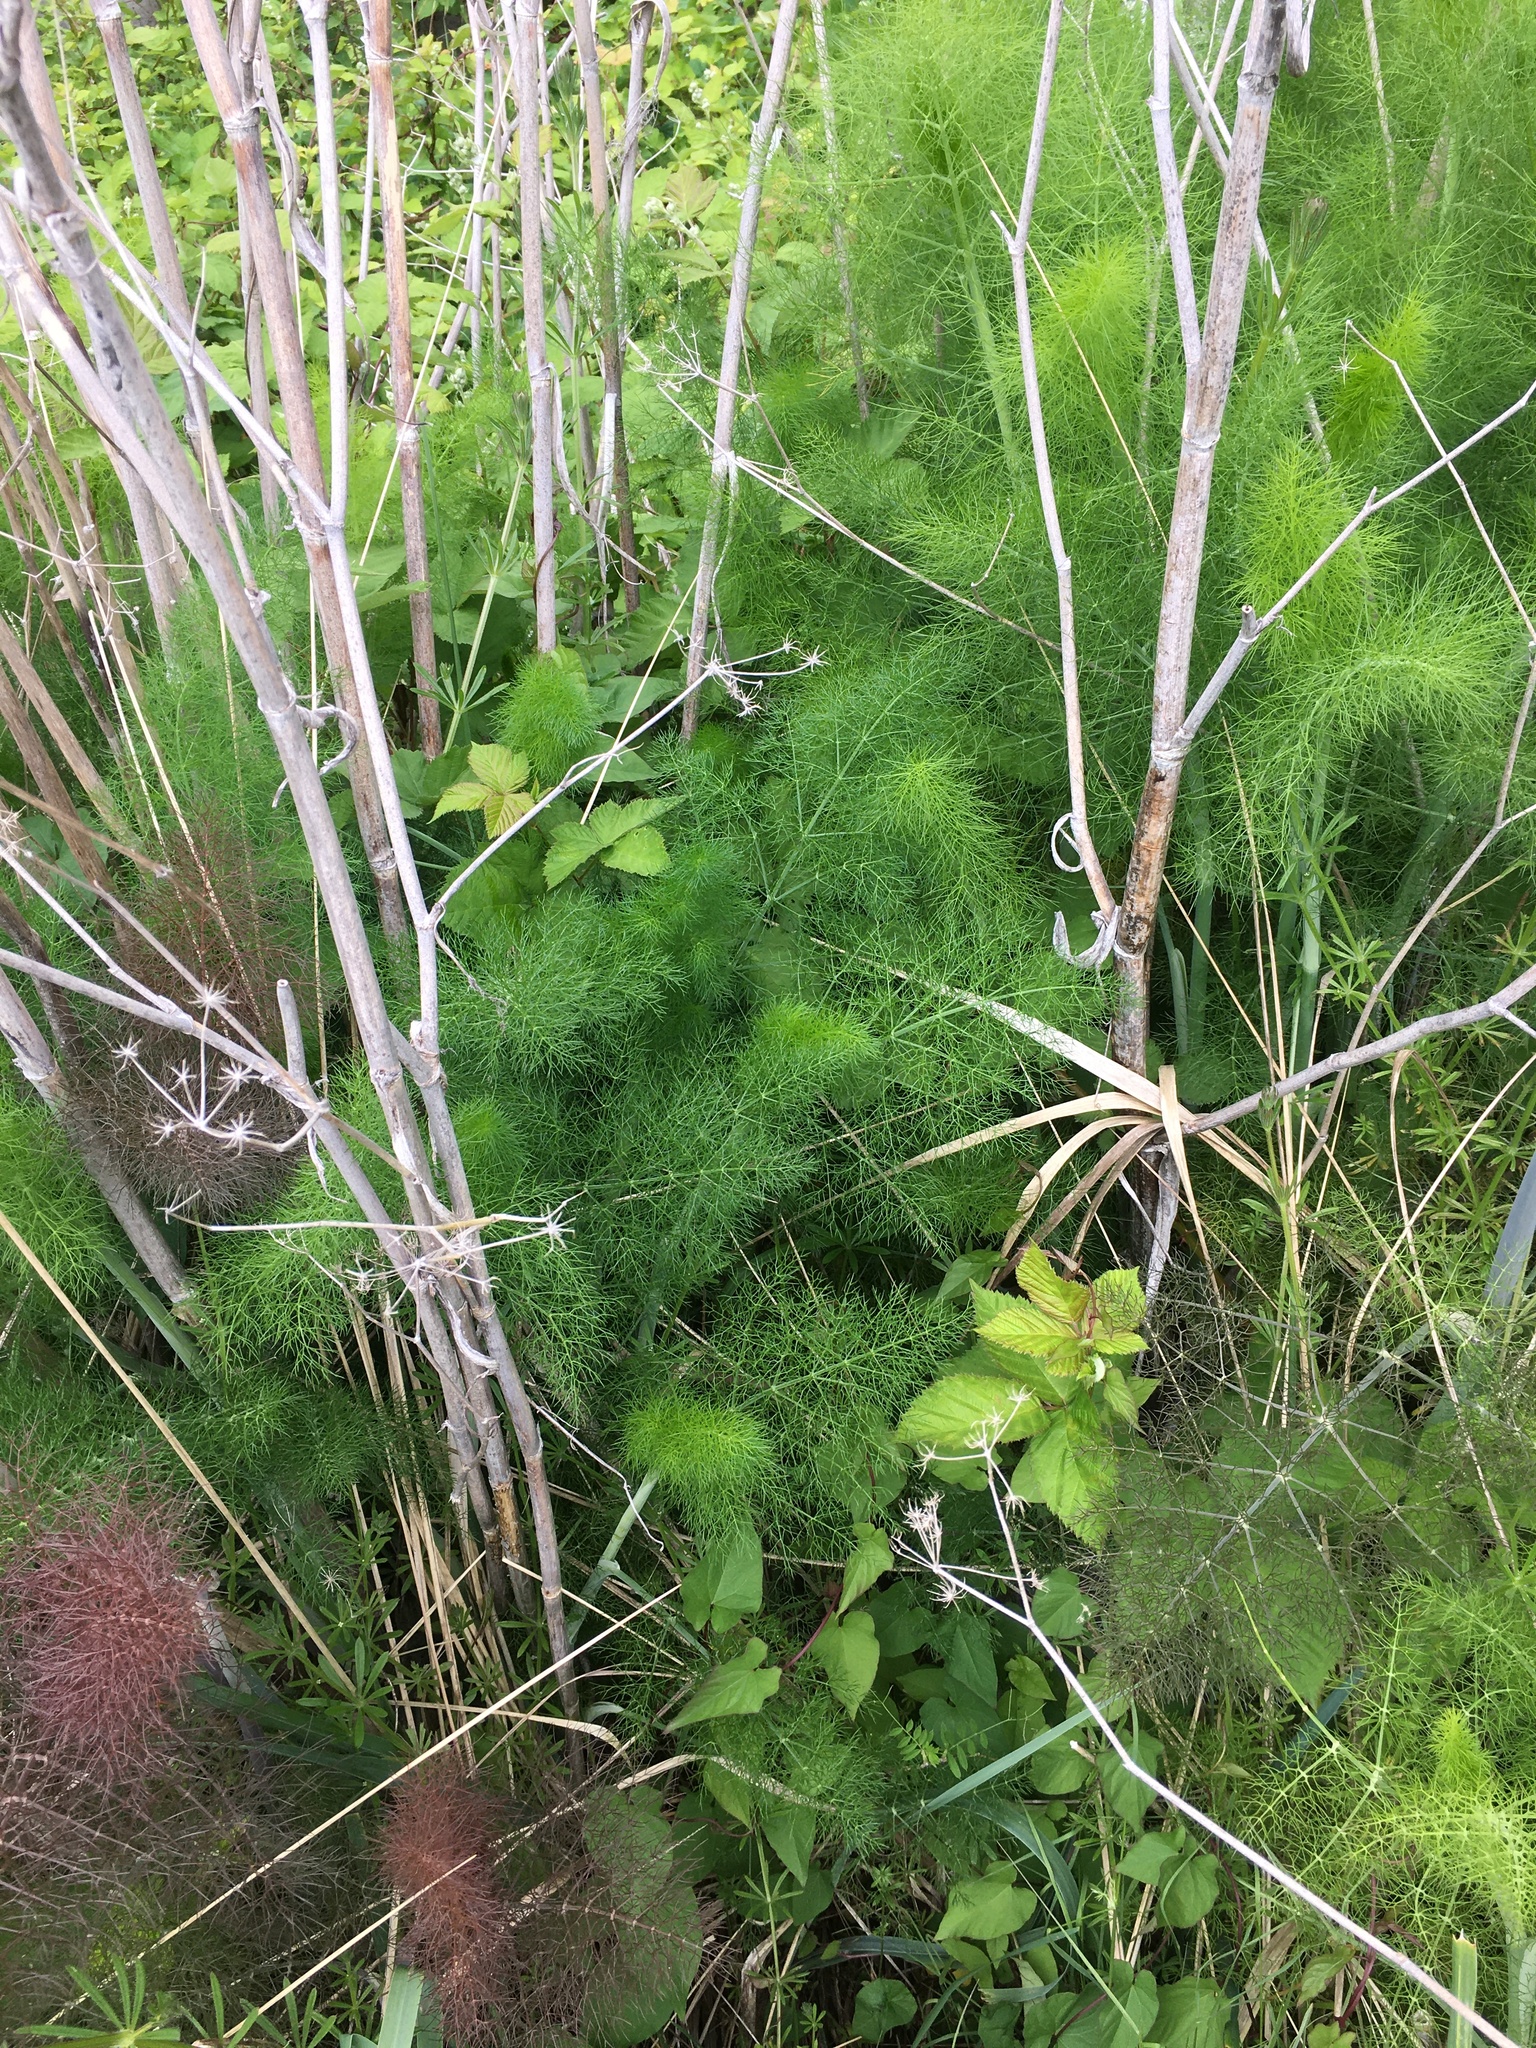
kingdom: Plantae
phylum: Tracheophyta
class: Magnoliopsida
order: Apiales
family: Apiaceae
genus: Foeniculum
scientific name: Foeniculum vulgare
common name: Fennel
